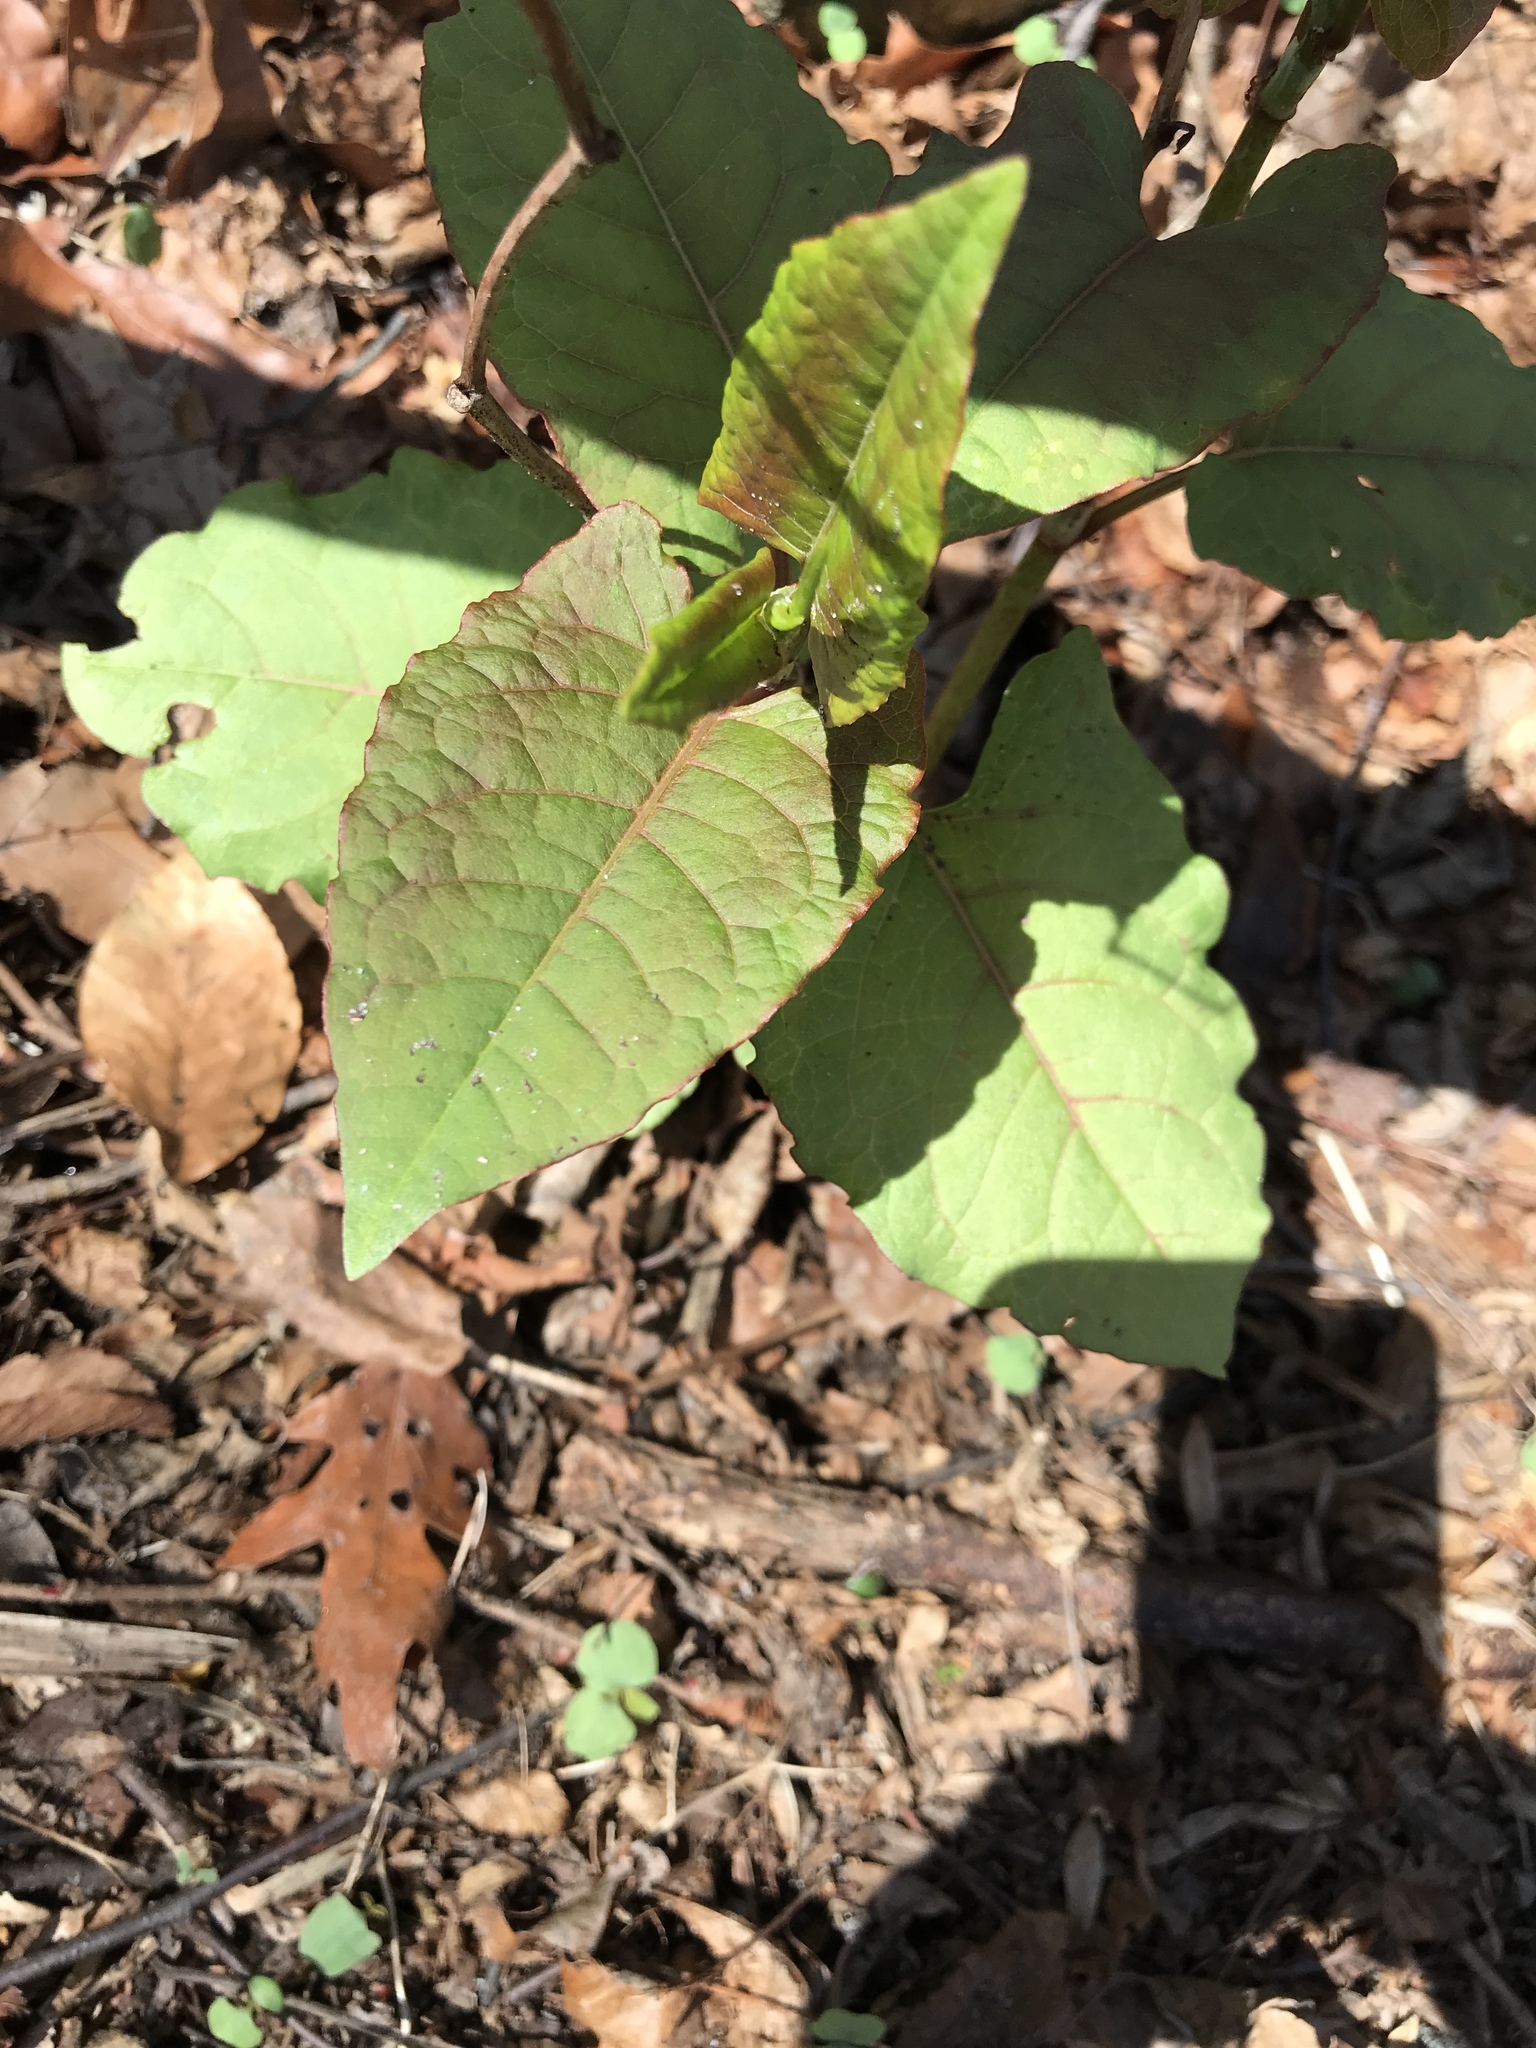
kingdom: Plantae
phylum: Tracheophyta
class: Magnoliopsida
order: Caryophyllales
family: Polygonaceae
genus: Reynoutria
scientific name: Reynoutria japonica
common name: Japanese knotweed
